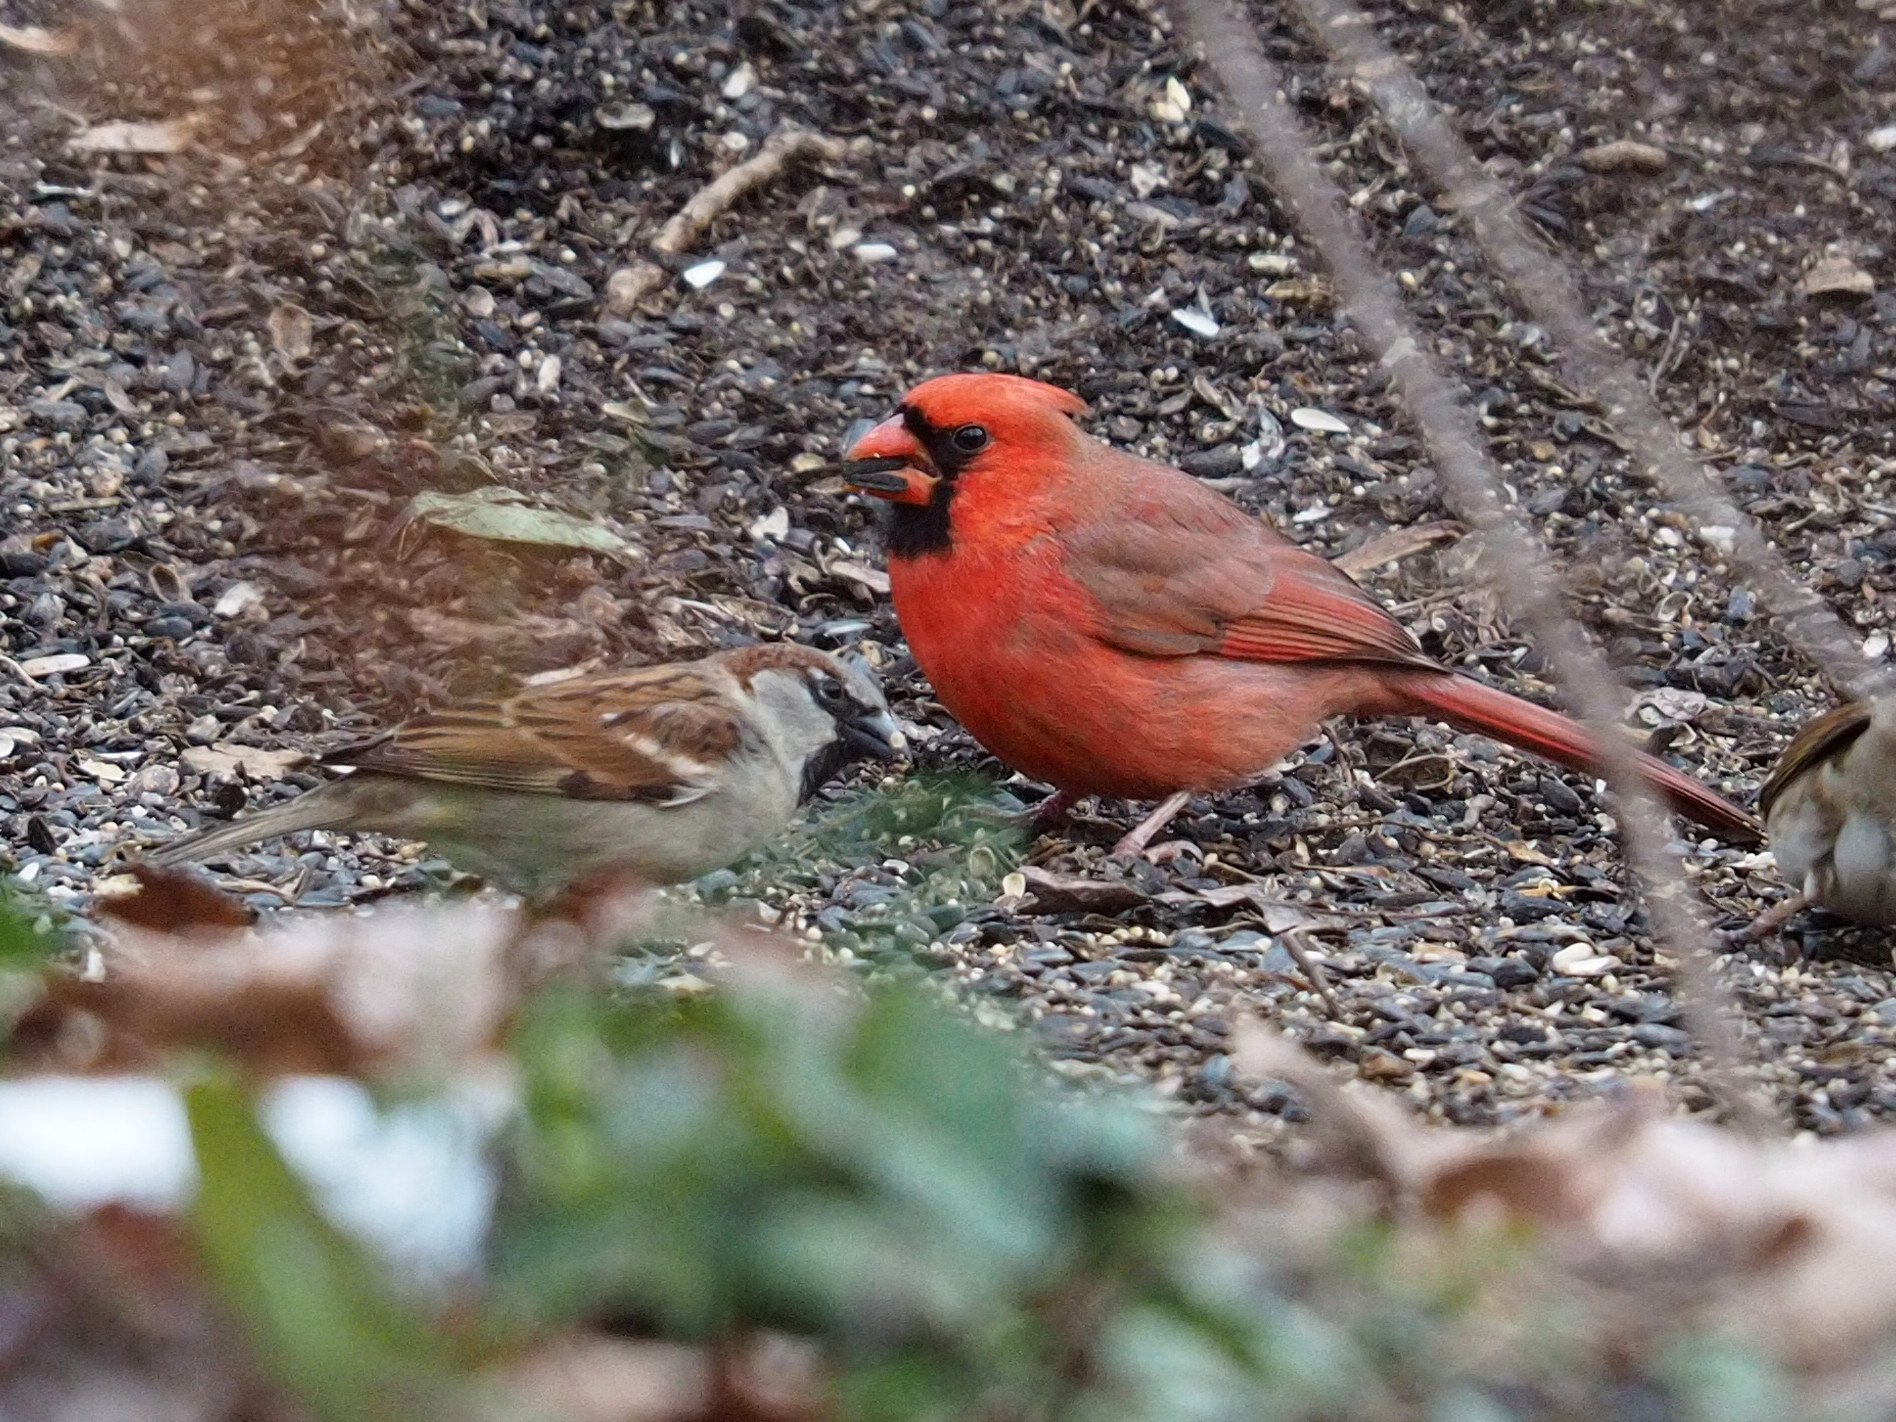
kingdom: Animalia
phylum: Chordata
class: Aves
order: Passeriformes
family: Cardinalidae
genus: Cardinalis
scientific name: Cardinalis cardinalis
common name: Northern cardinal
